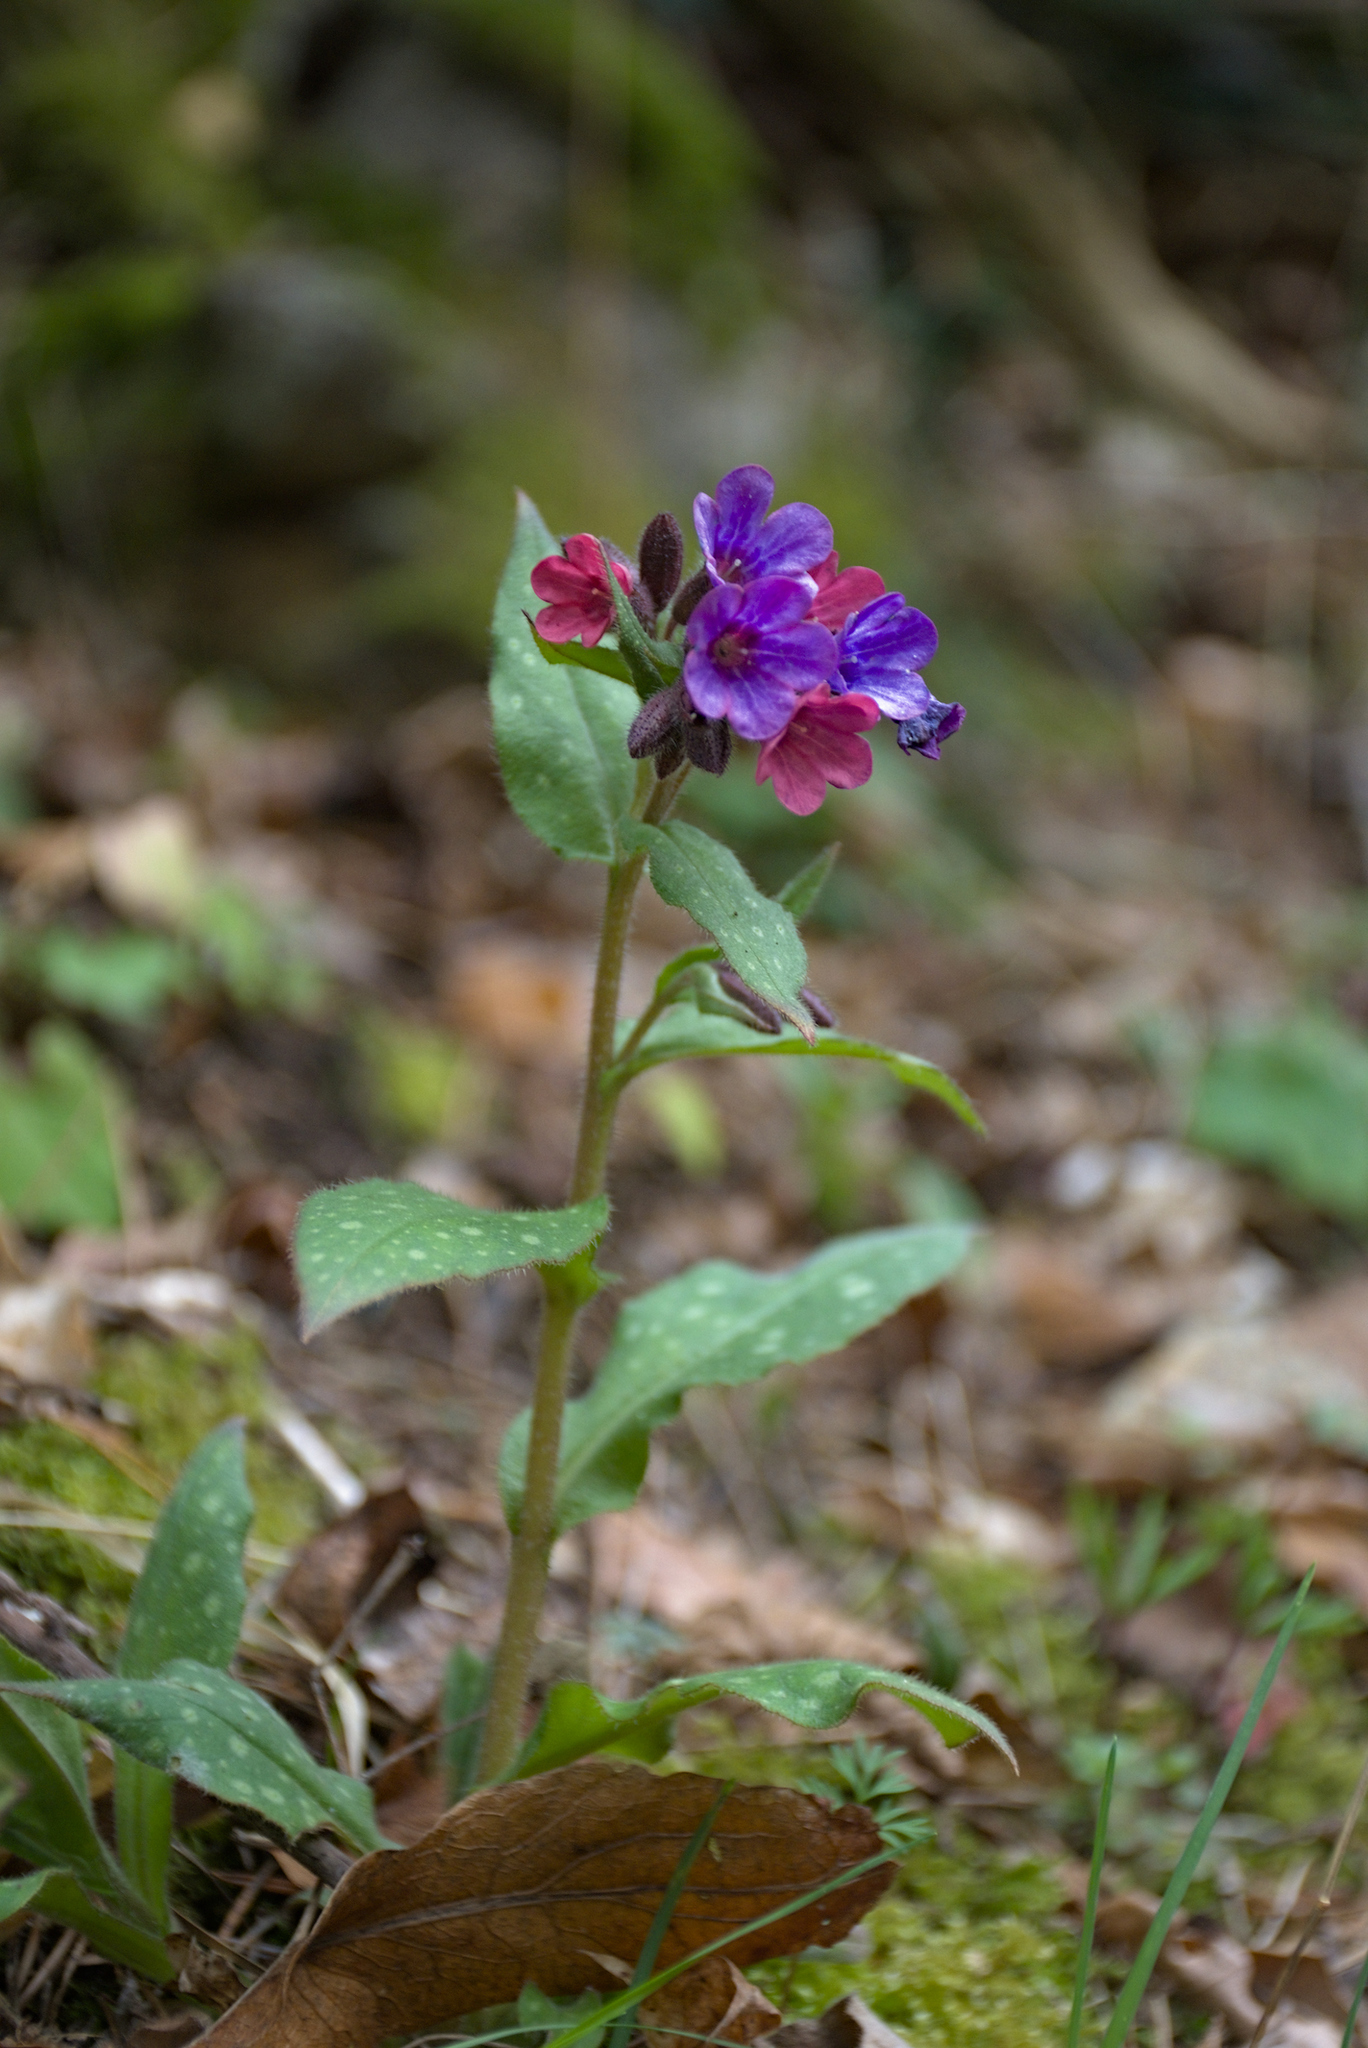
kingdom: Plantae
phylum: Tracheophyta
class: Magnoliopsida
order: Boraginales
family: Boraginaceae
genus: Pulmonaria
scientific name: Pulmonaria affinis
